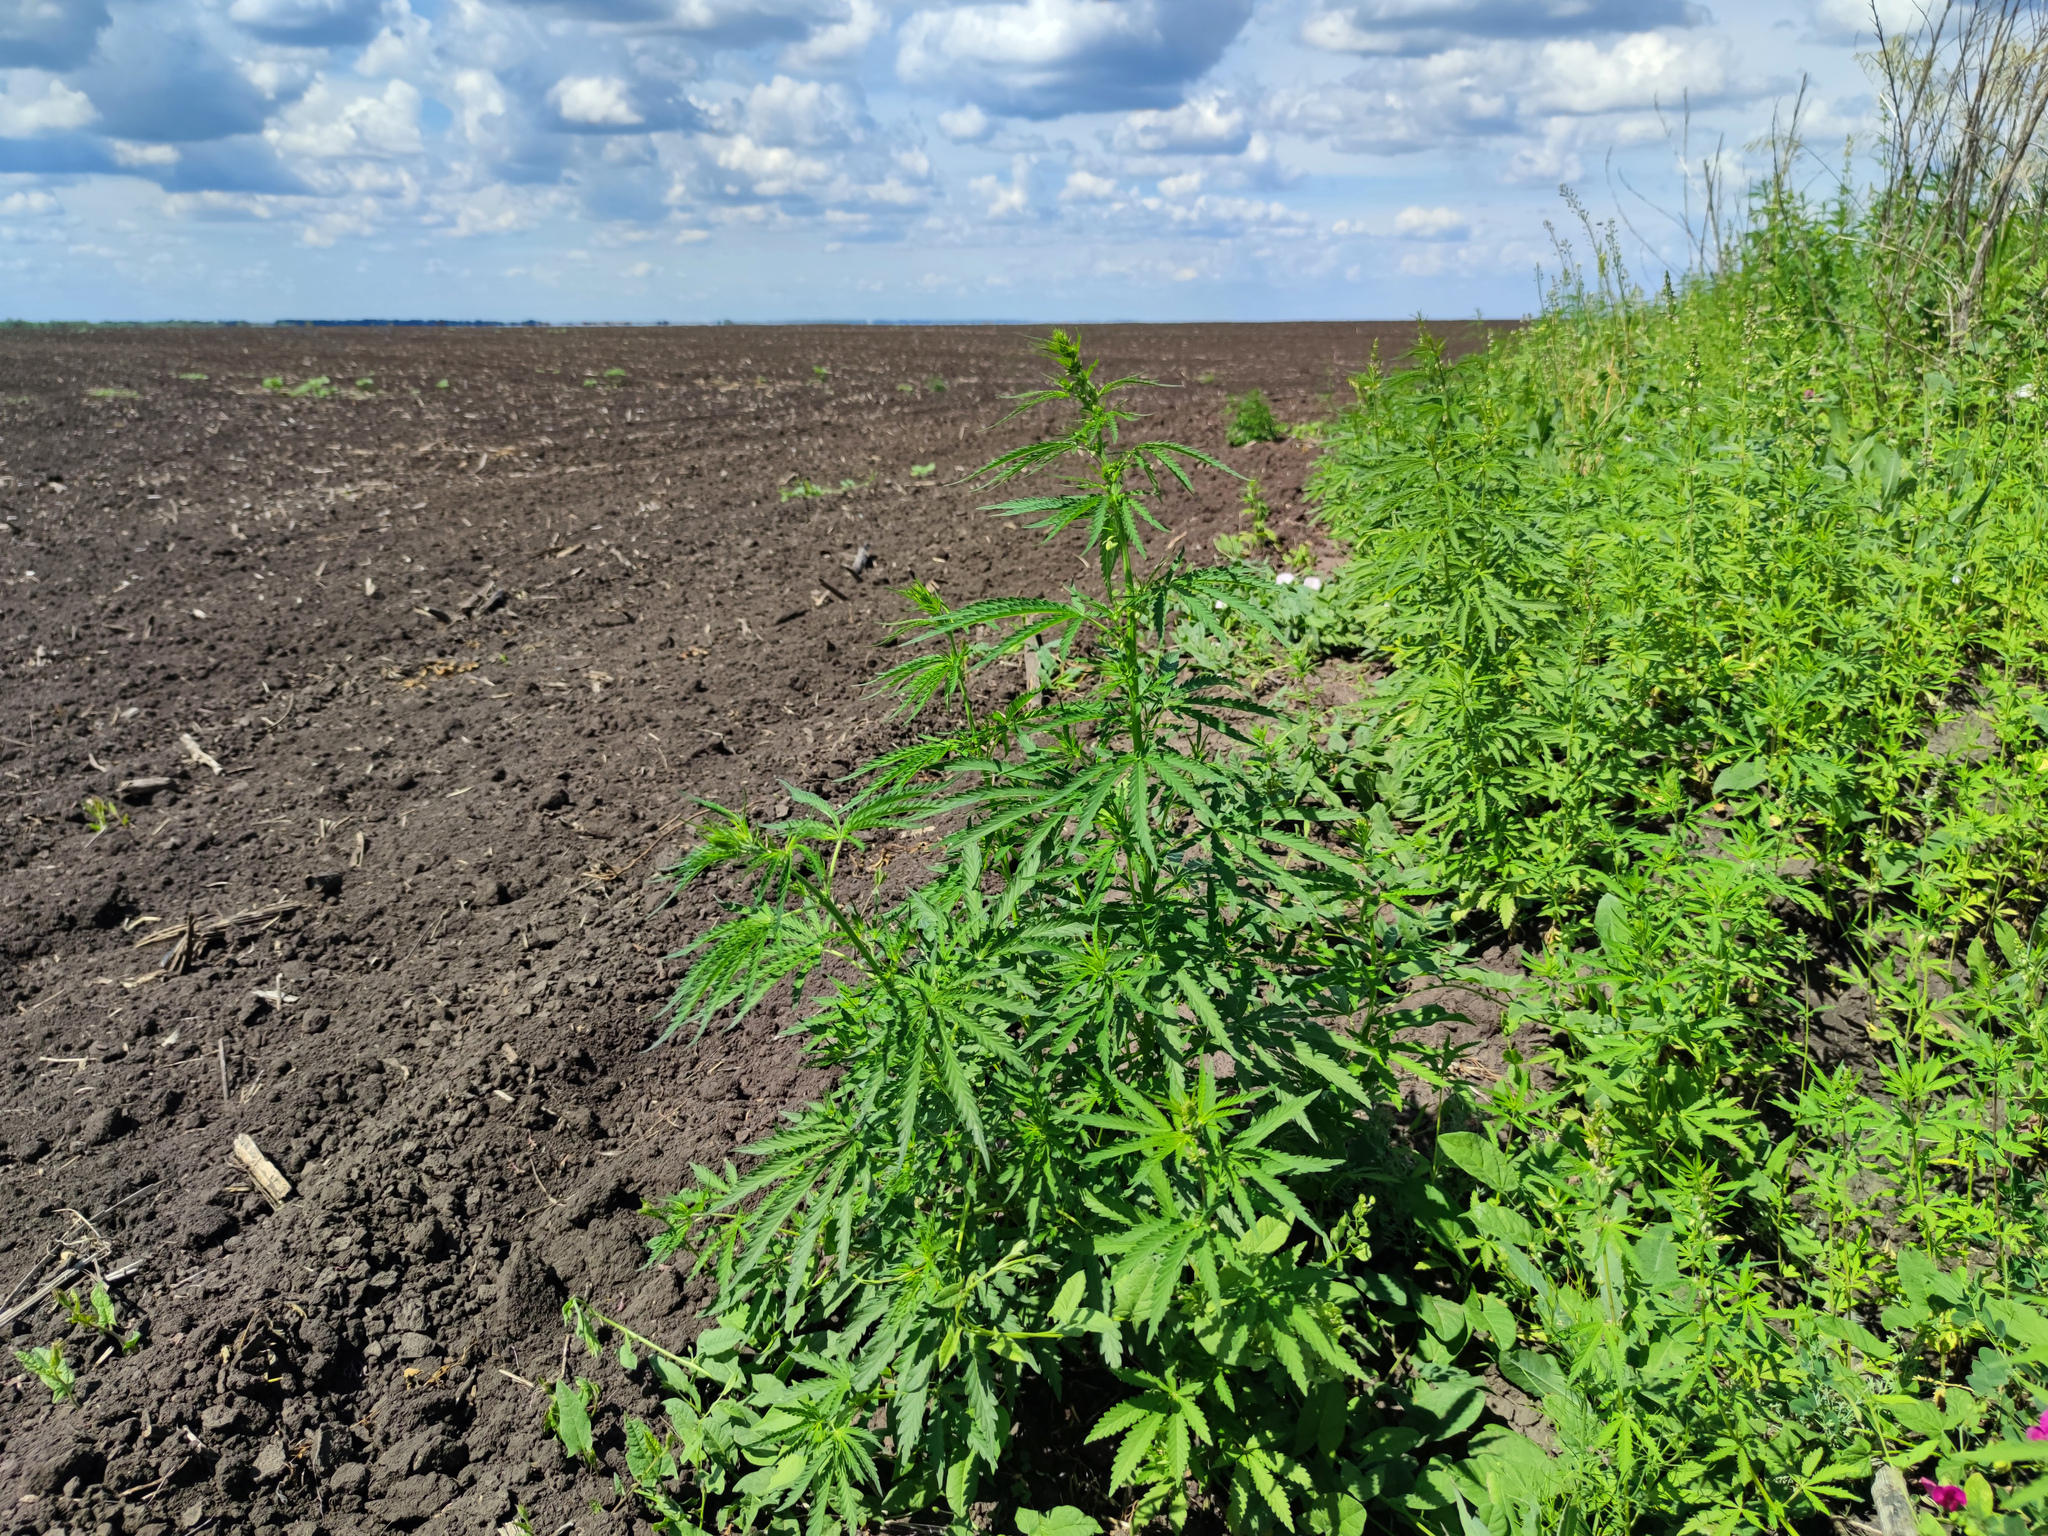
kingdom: Plantae
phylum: Tracheophyta
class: Magnoliopsida
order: Rosales
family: Cannabaceae
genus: Cannabis
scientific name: Cannabis sativa
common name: Hemp
